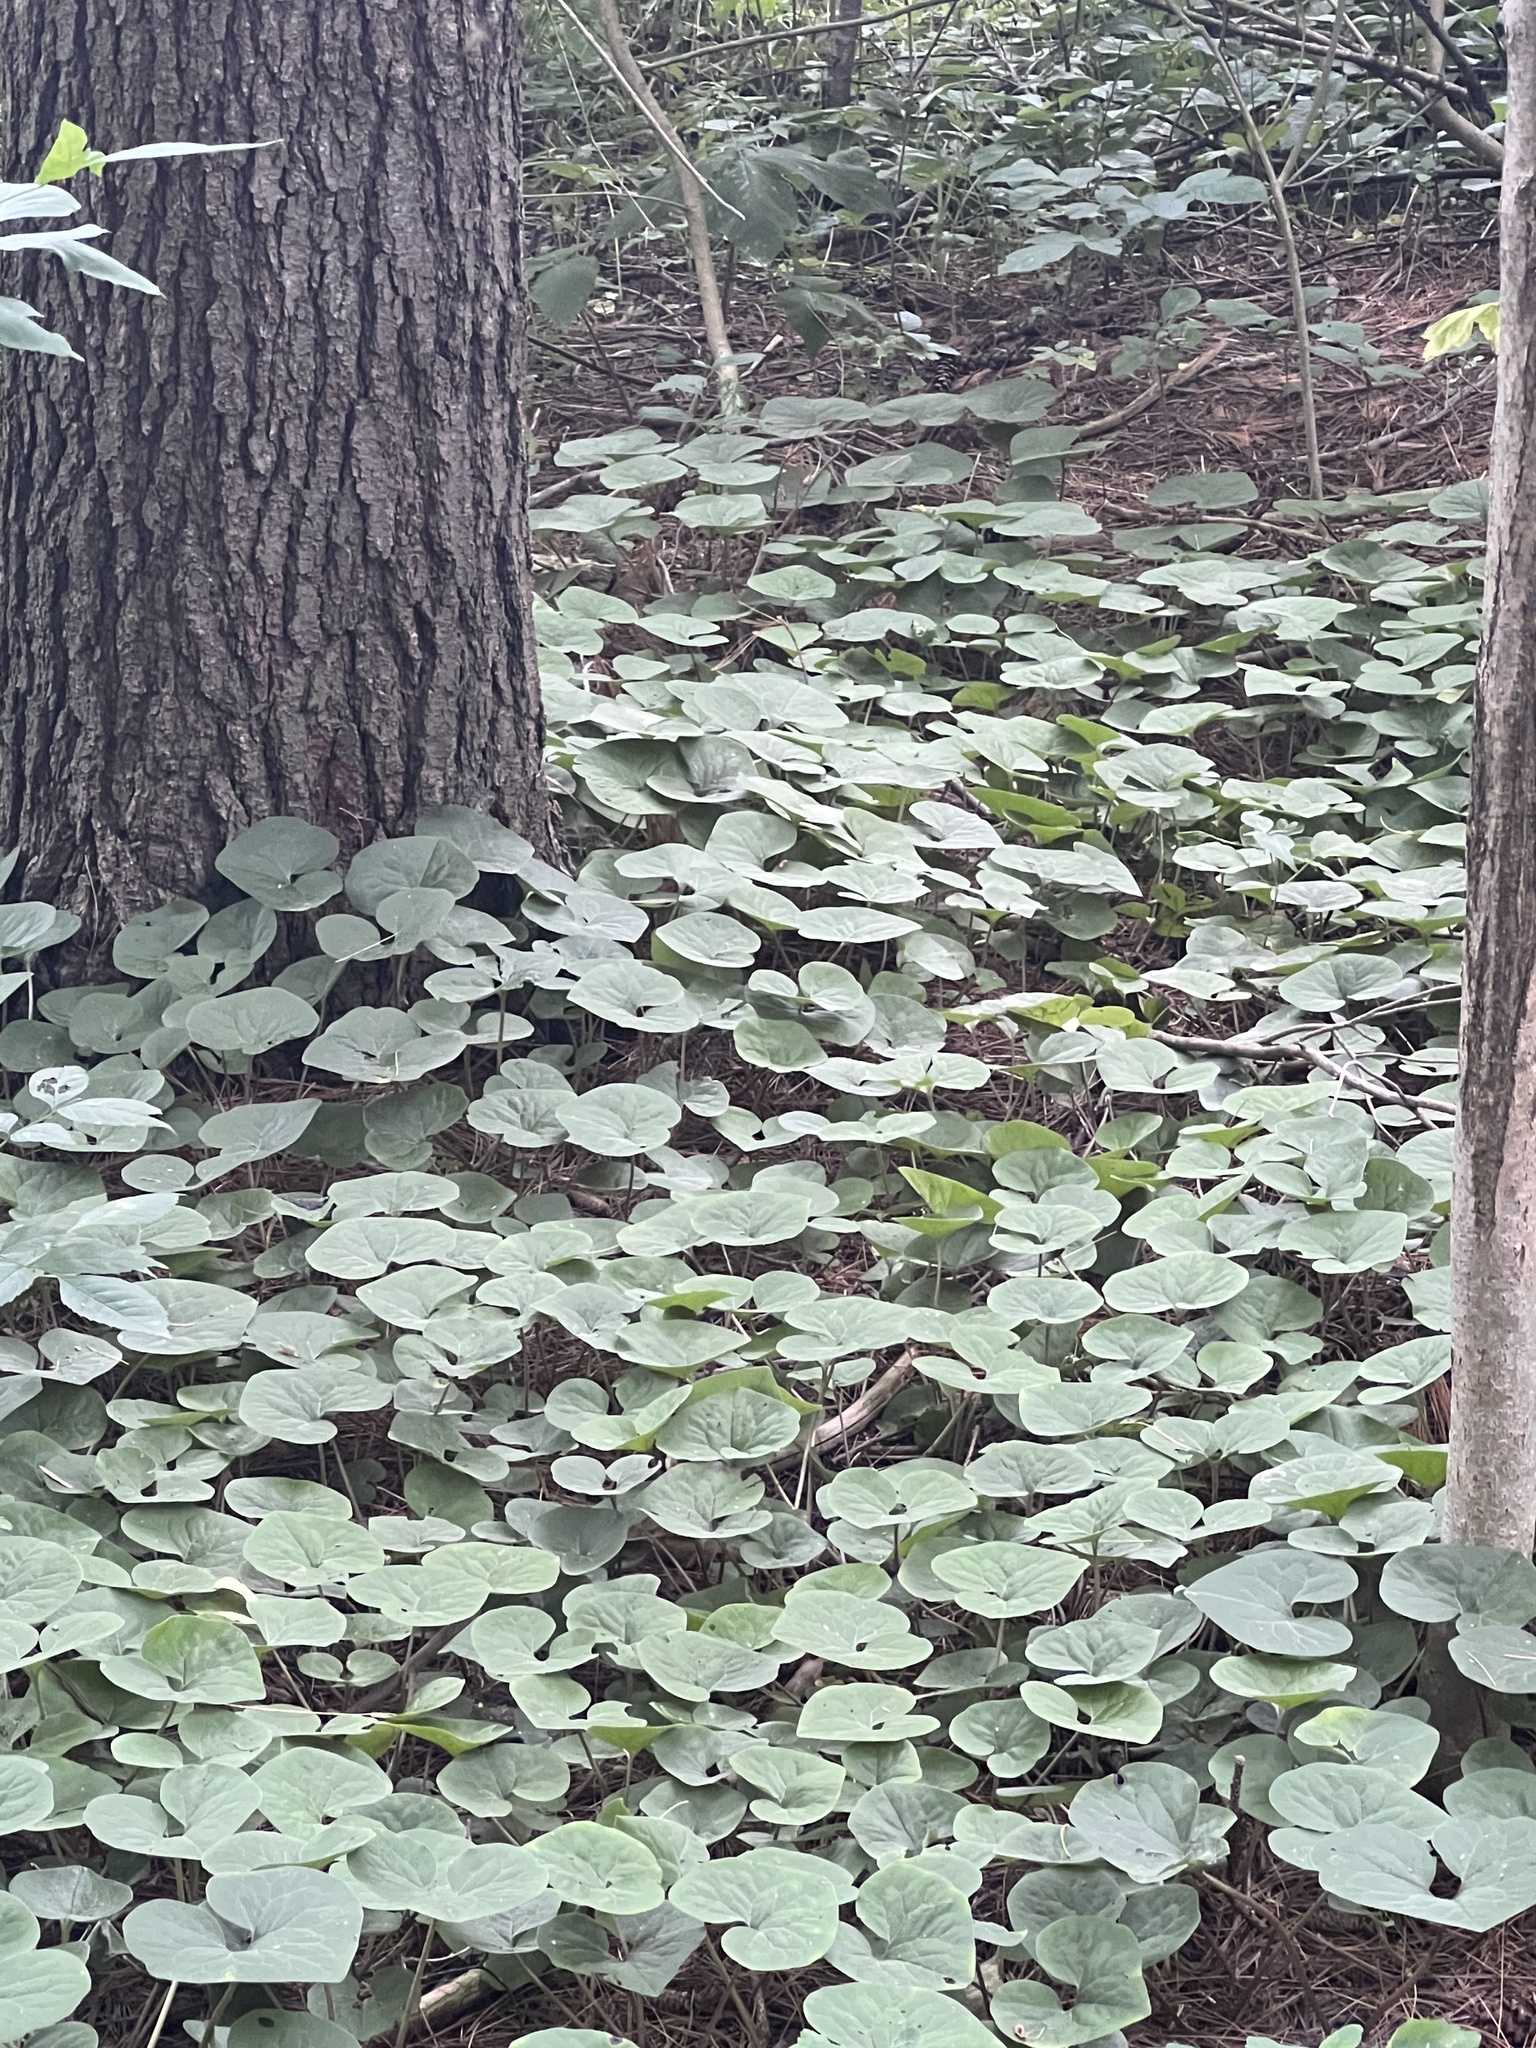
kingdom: Plantae
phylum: Tracheophyta
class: Magnoliopsida
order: Piperales
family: Aristolochiaceae
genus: Asarum
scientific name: Asarum canadense
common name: Wild ginger
